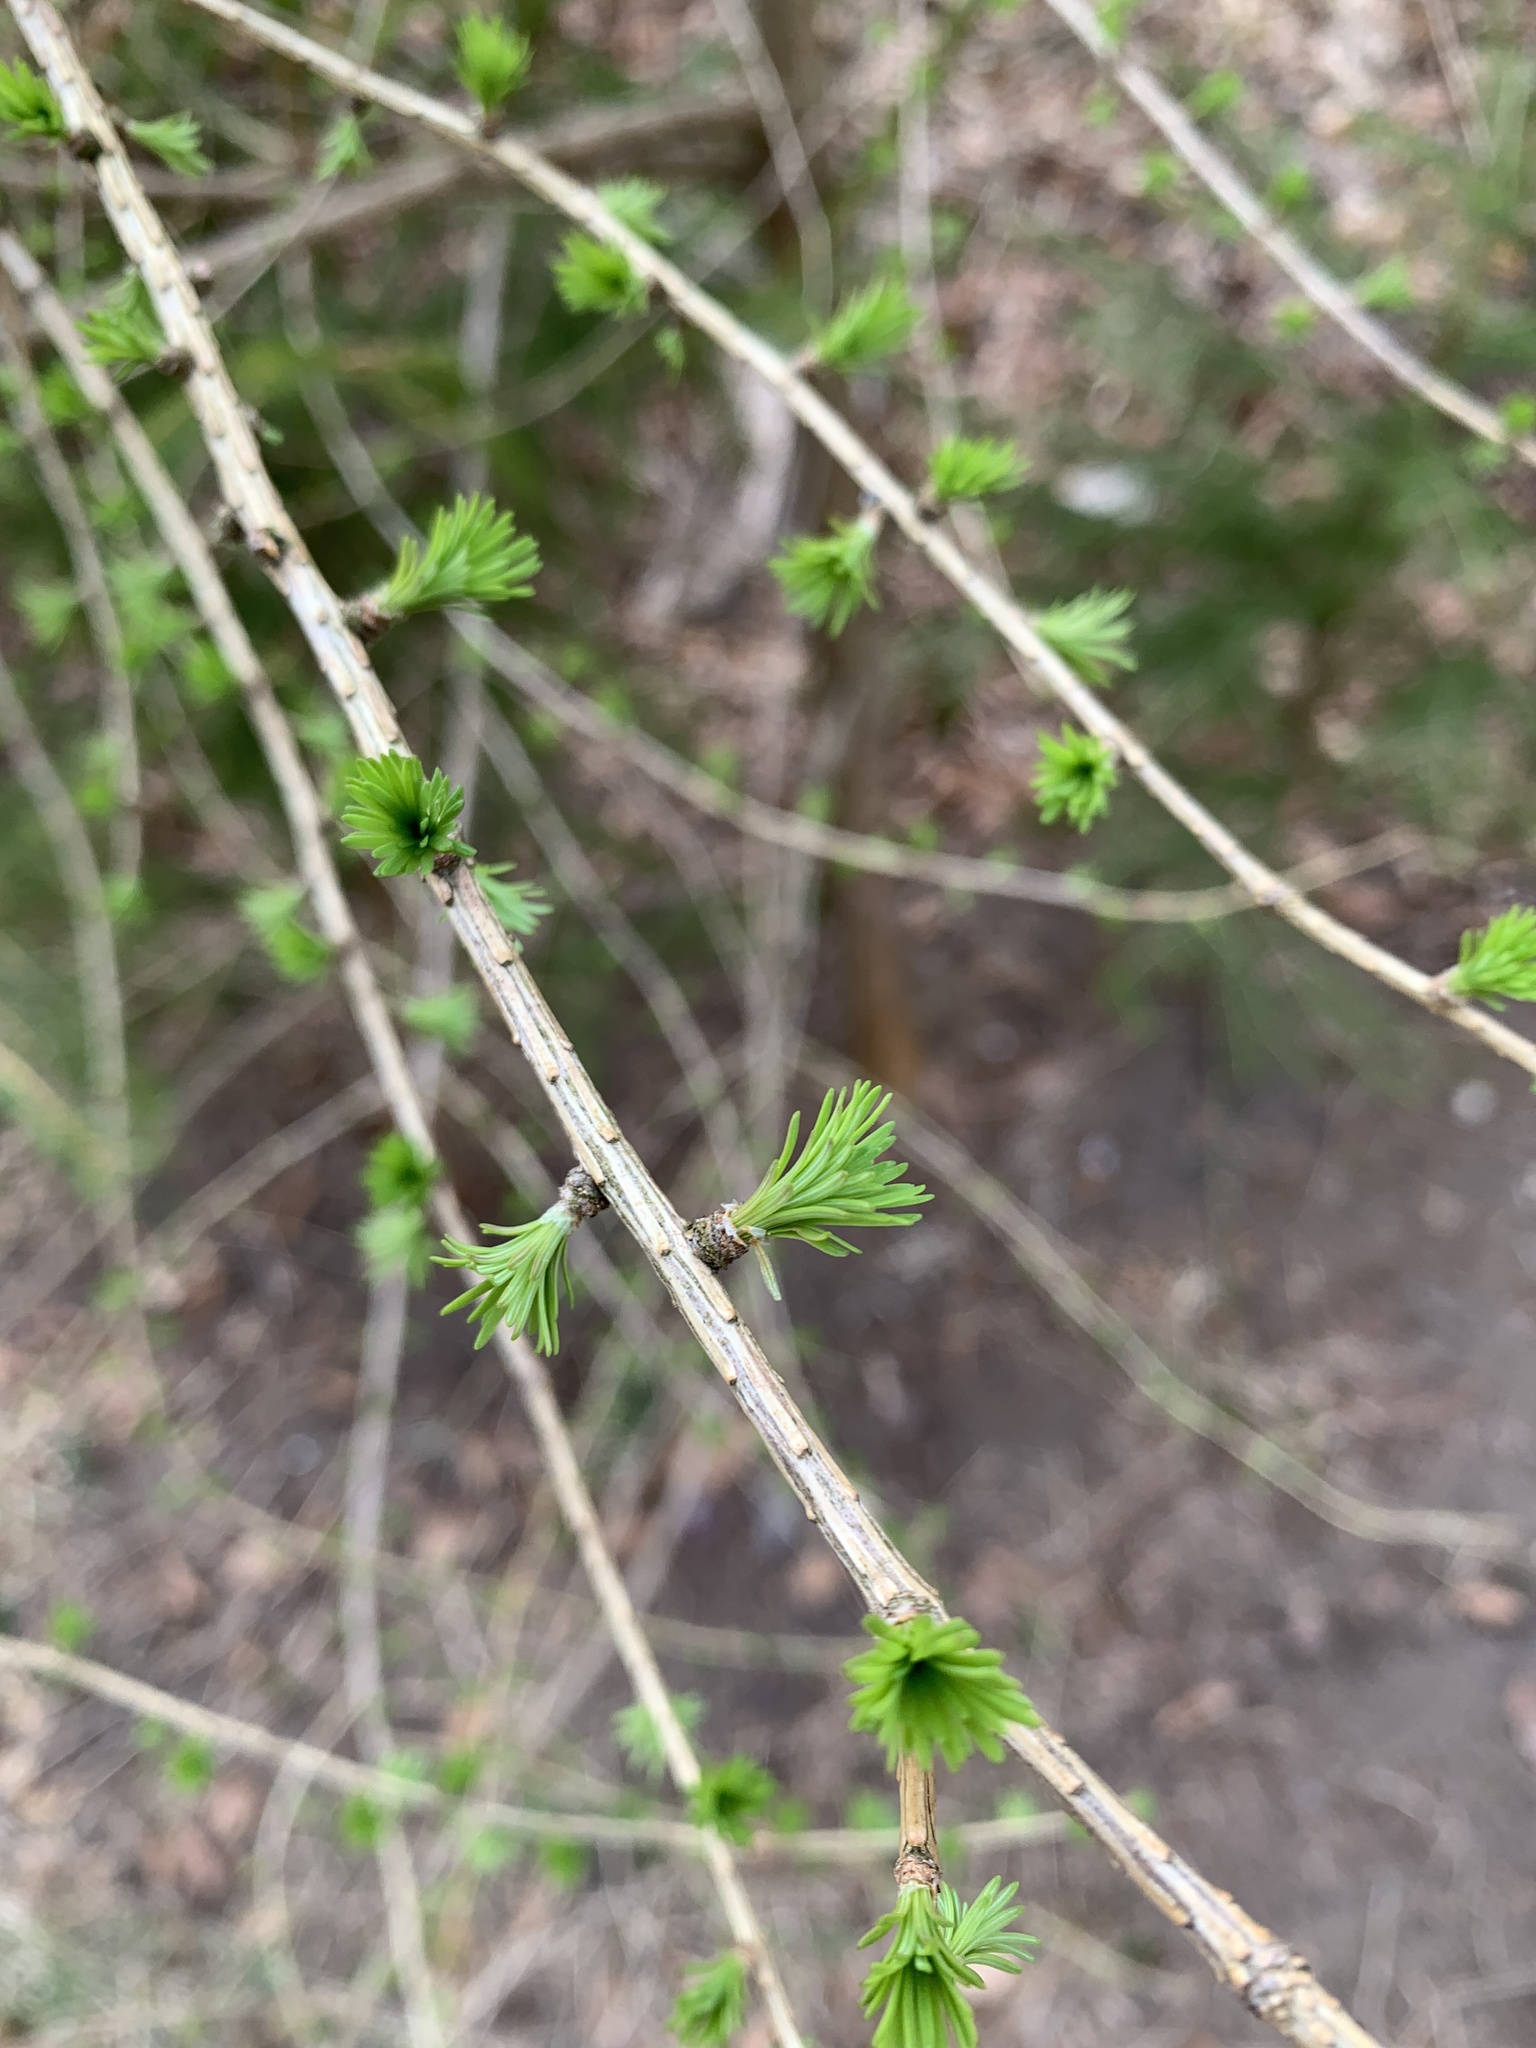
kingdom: Plantae
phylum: Tracheophyta
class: Pinopsida
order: Pinales
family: Pinaceae
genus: Larix
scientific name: Larix decidua
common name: European larch
